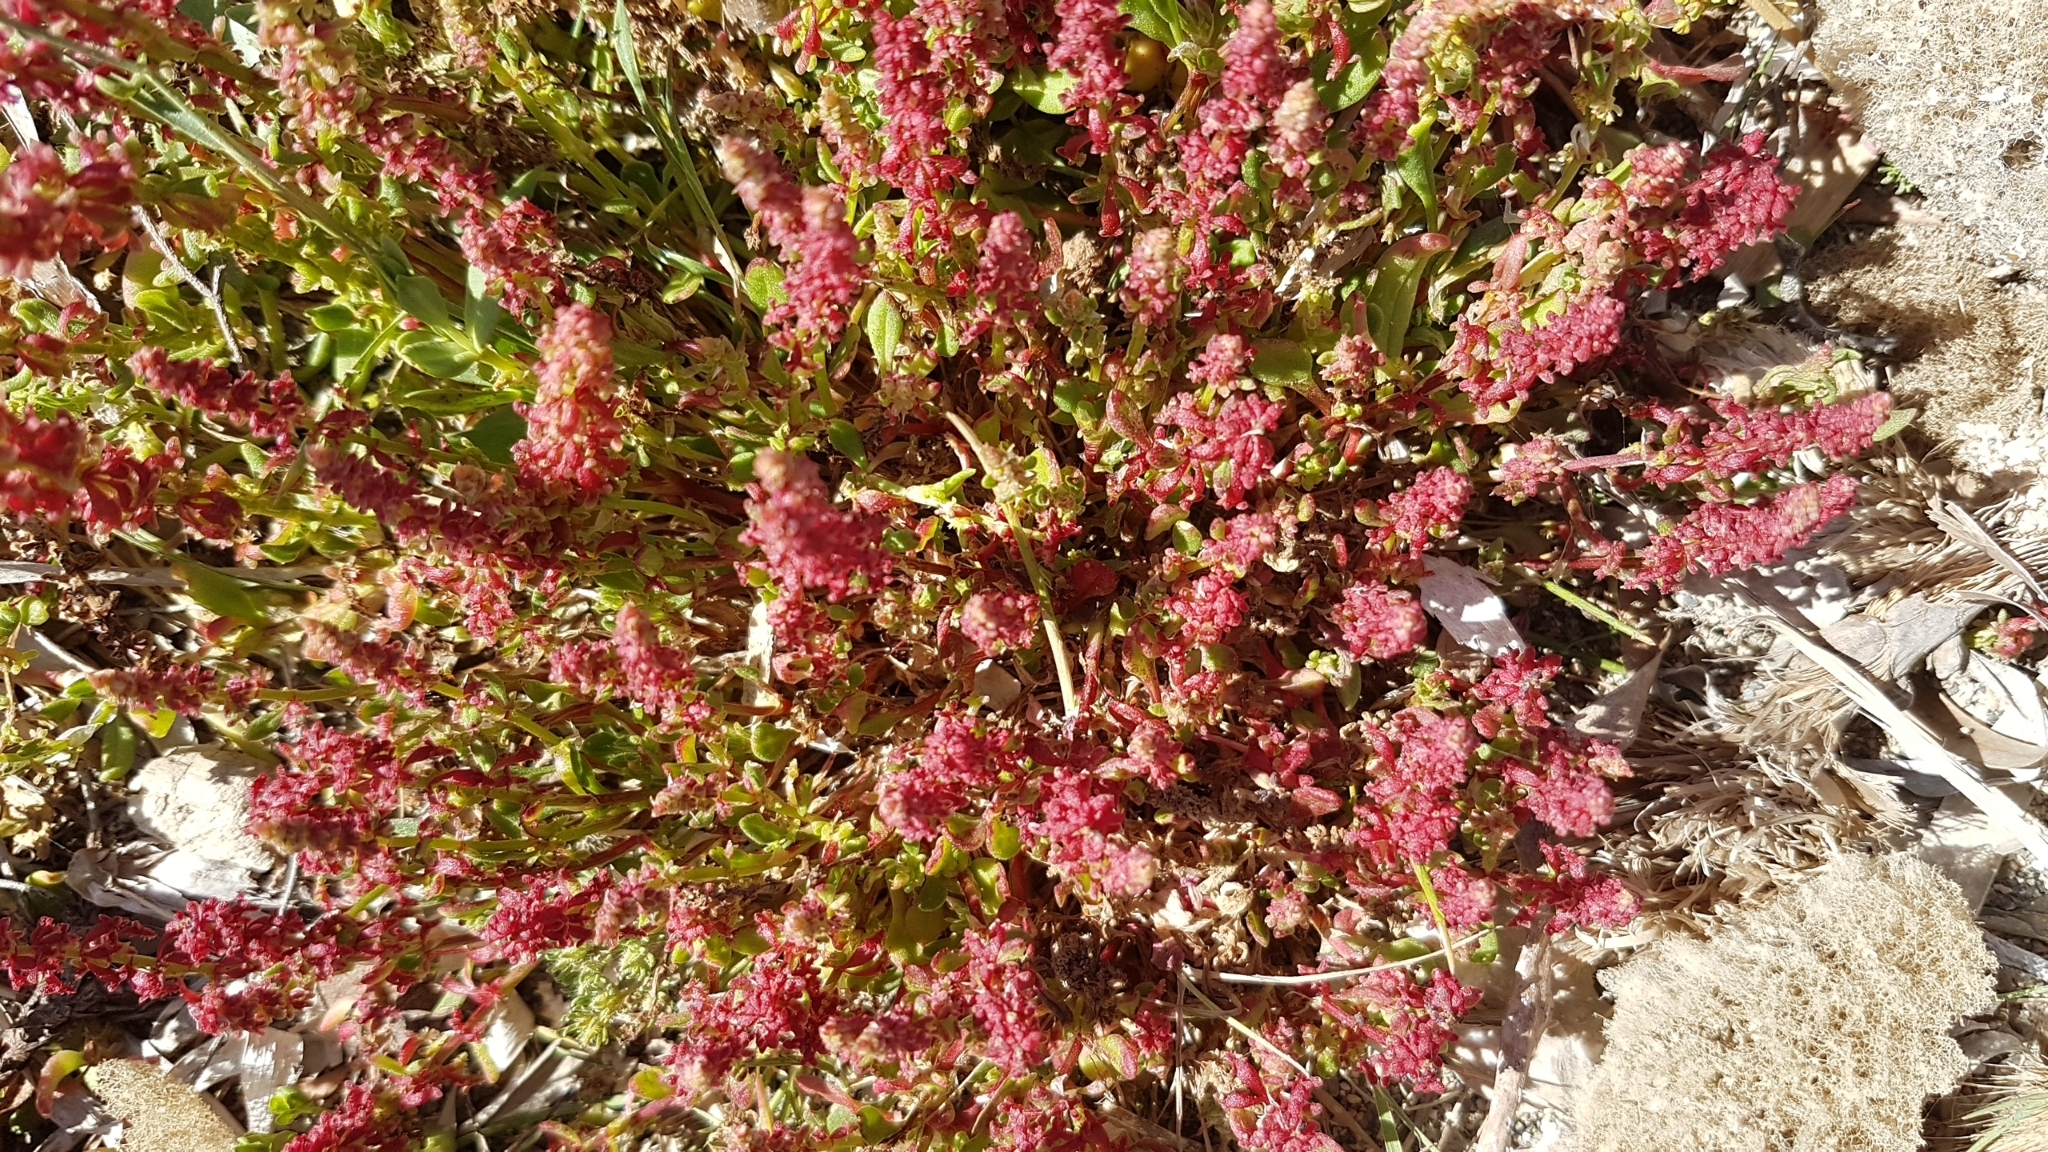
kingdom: Plantae
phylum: Tracheophyta
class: Magnoliopsida
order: Caryophyllales
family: Polygonaceae
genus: Rumex
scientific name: Rumex bucephalophorus
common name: Red dock
